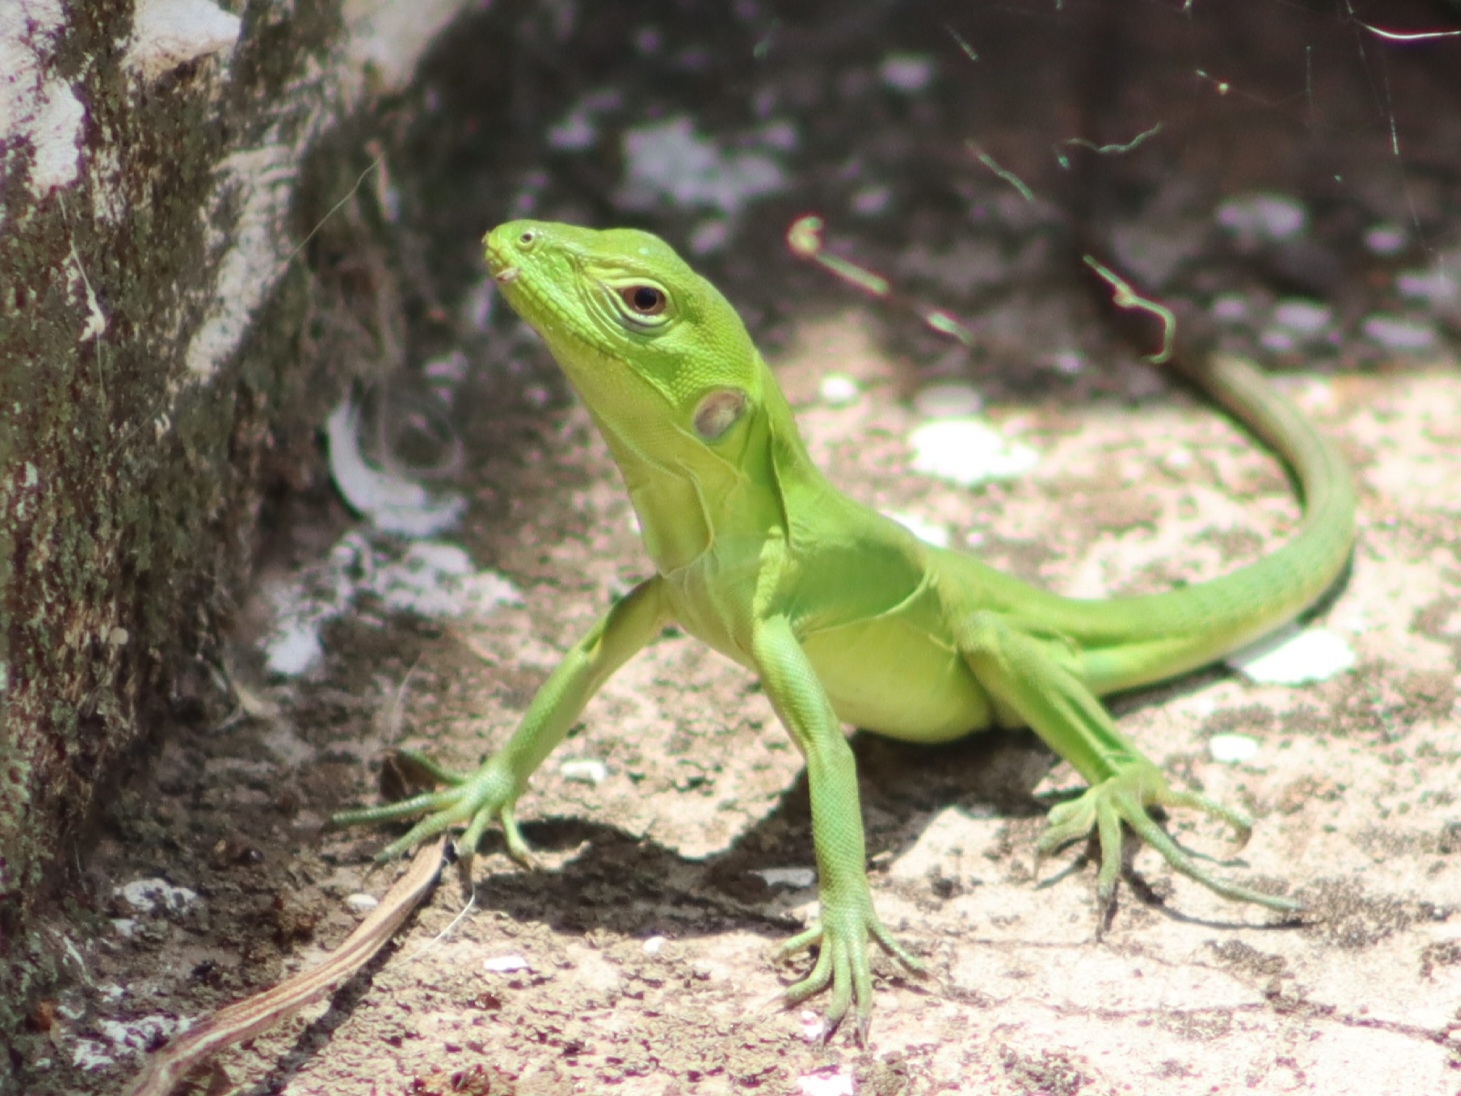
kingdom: Animalia
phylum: Chordata
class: Squamata
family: Iguanidae
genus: Ctenosaura
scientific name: Ctenosaura pectinata
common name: Guerreran spiny-tailed iguana
